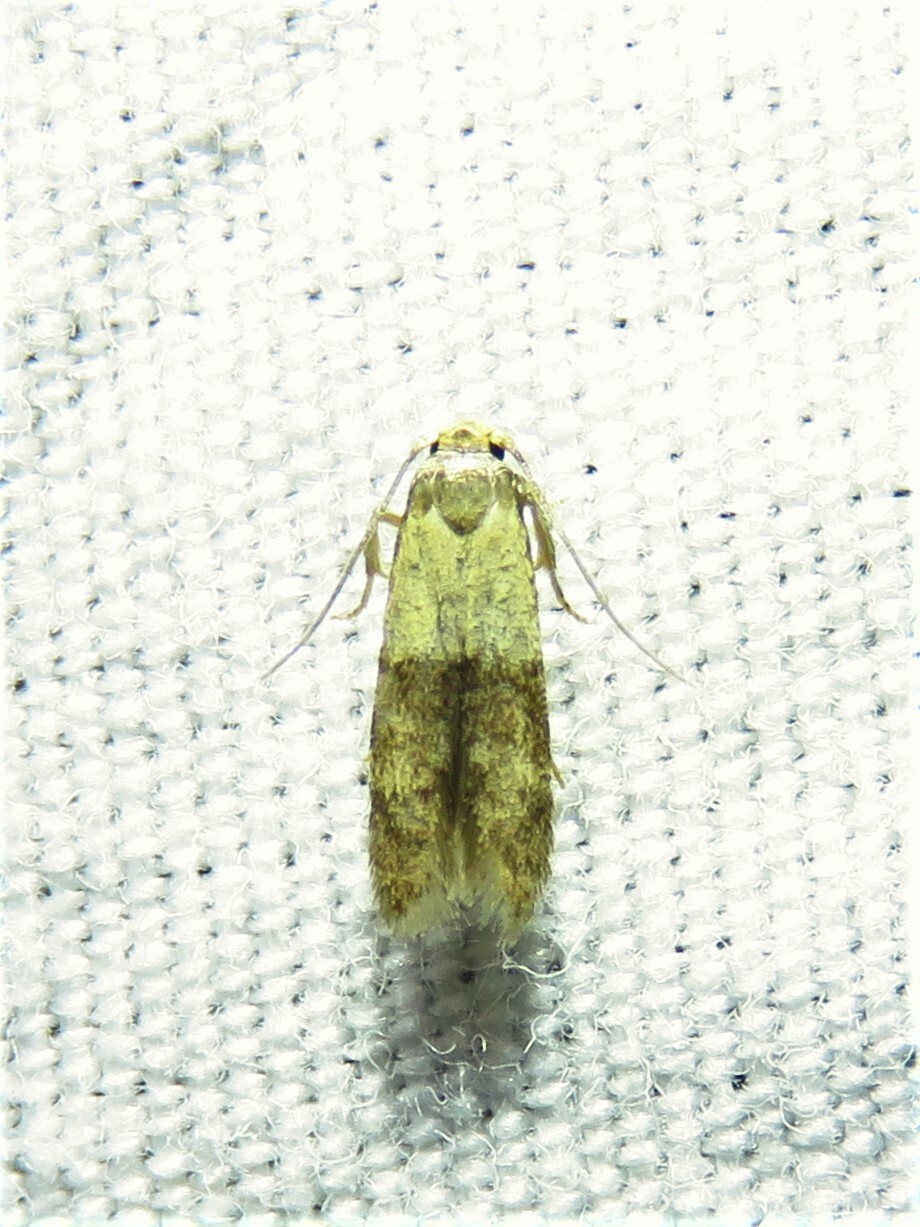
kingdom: Animalia
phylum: Arthropoda
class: Insecta
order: Lepidoptera
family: Blastobasidae
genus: Pigritia
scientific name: Pigritia laticapitella
